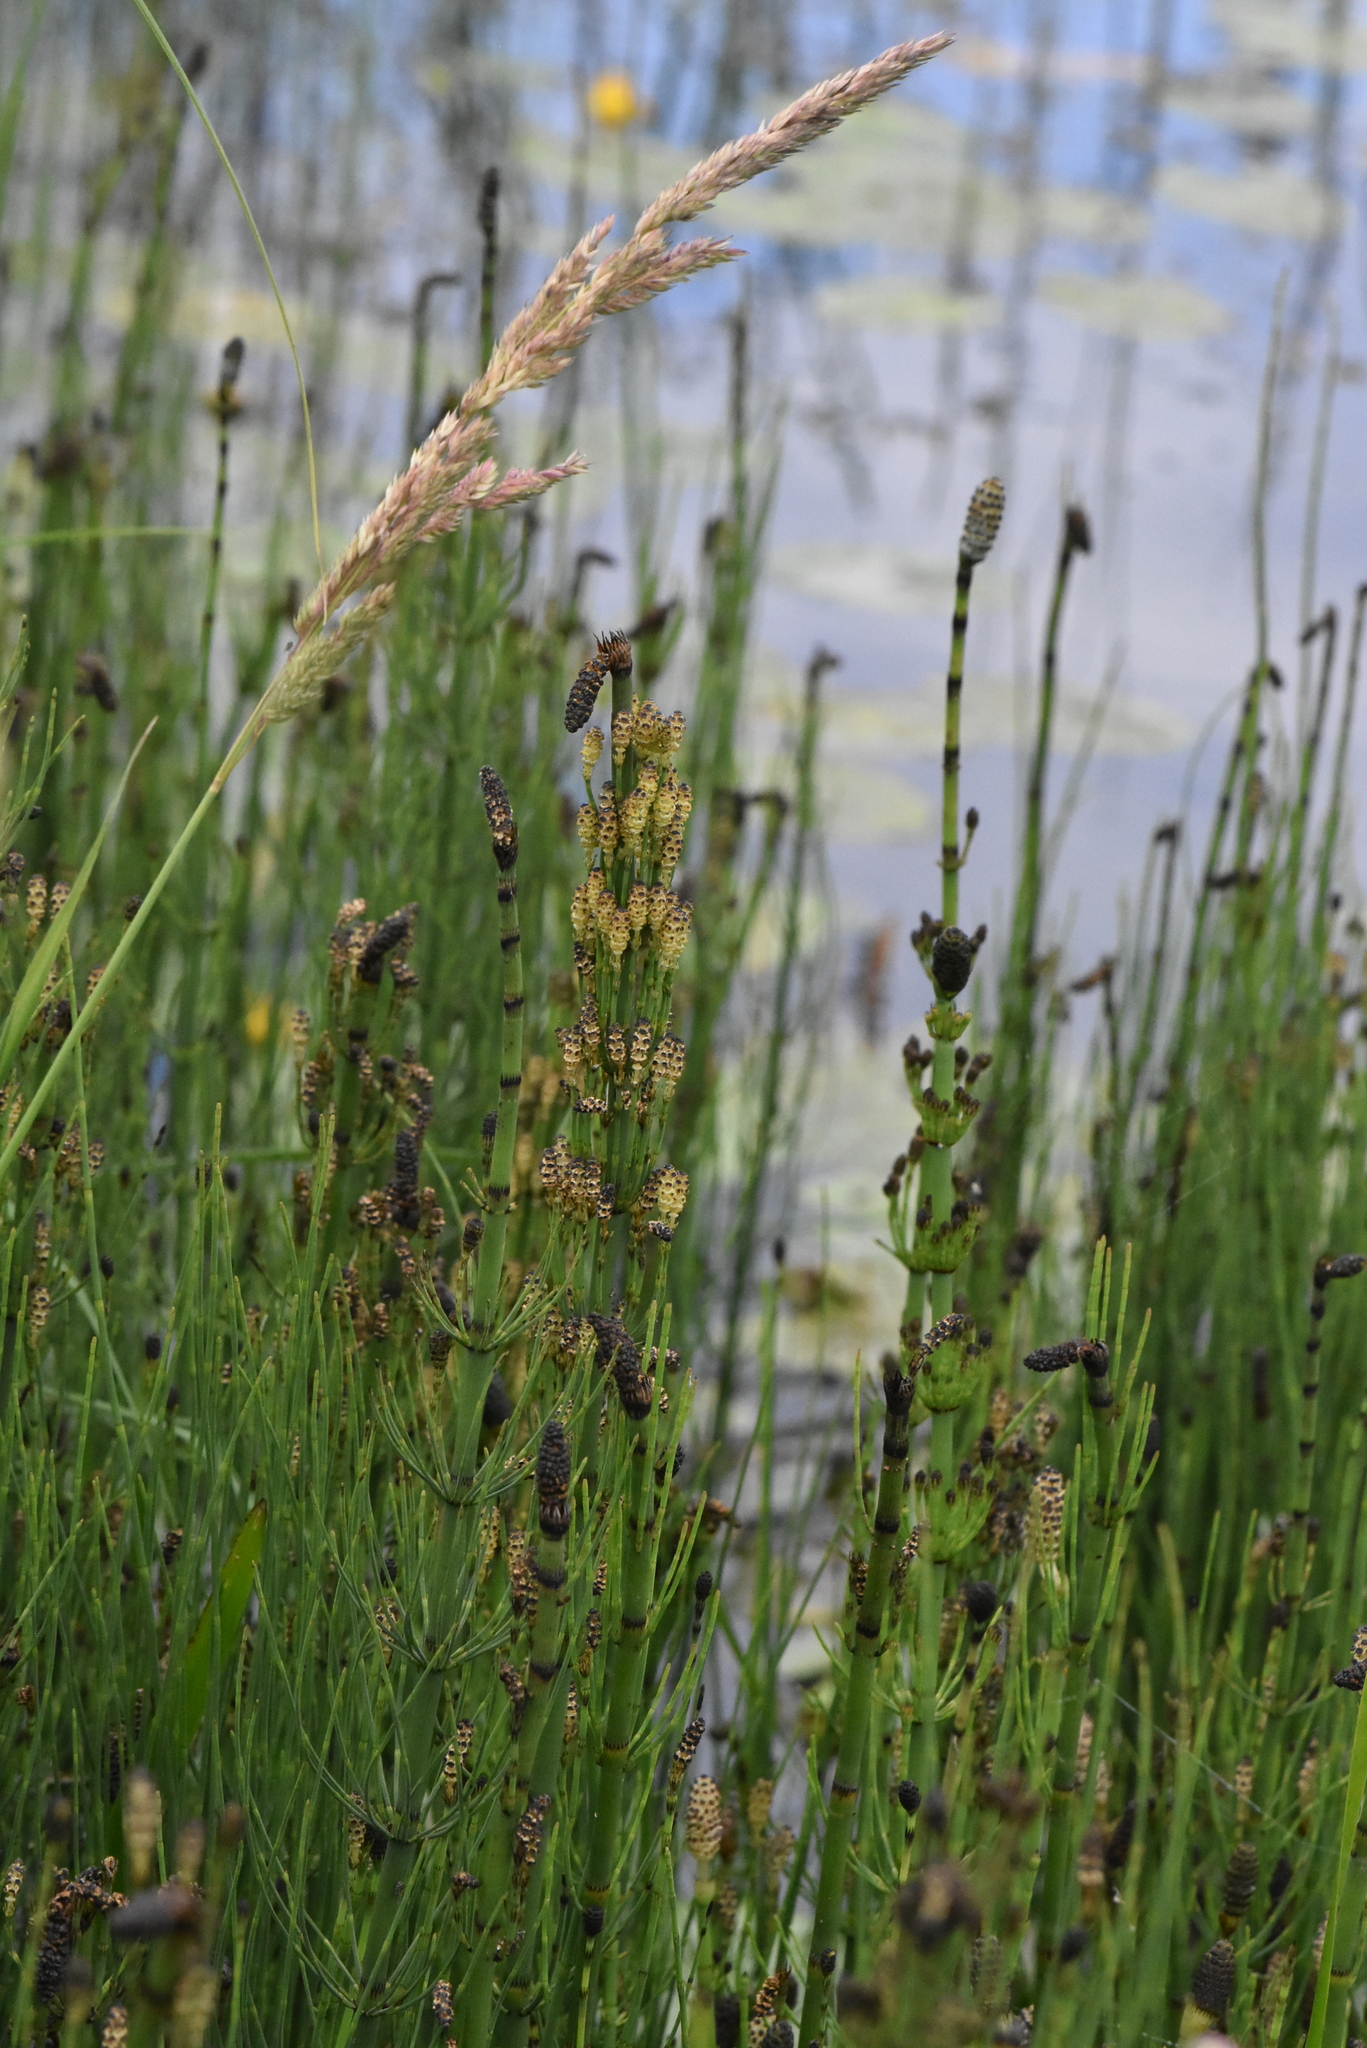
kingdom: Plantae
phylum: Tracheophyta
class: Polypodiopsida
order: Equisetales
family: Equisetaceae
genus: Equisetum
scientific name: Equisetum fluviatile
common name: Water horsetail
